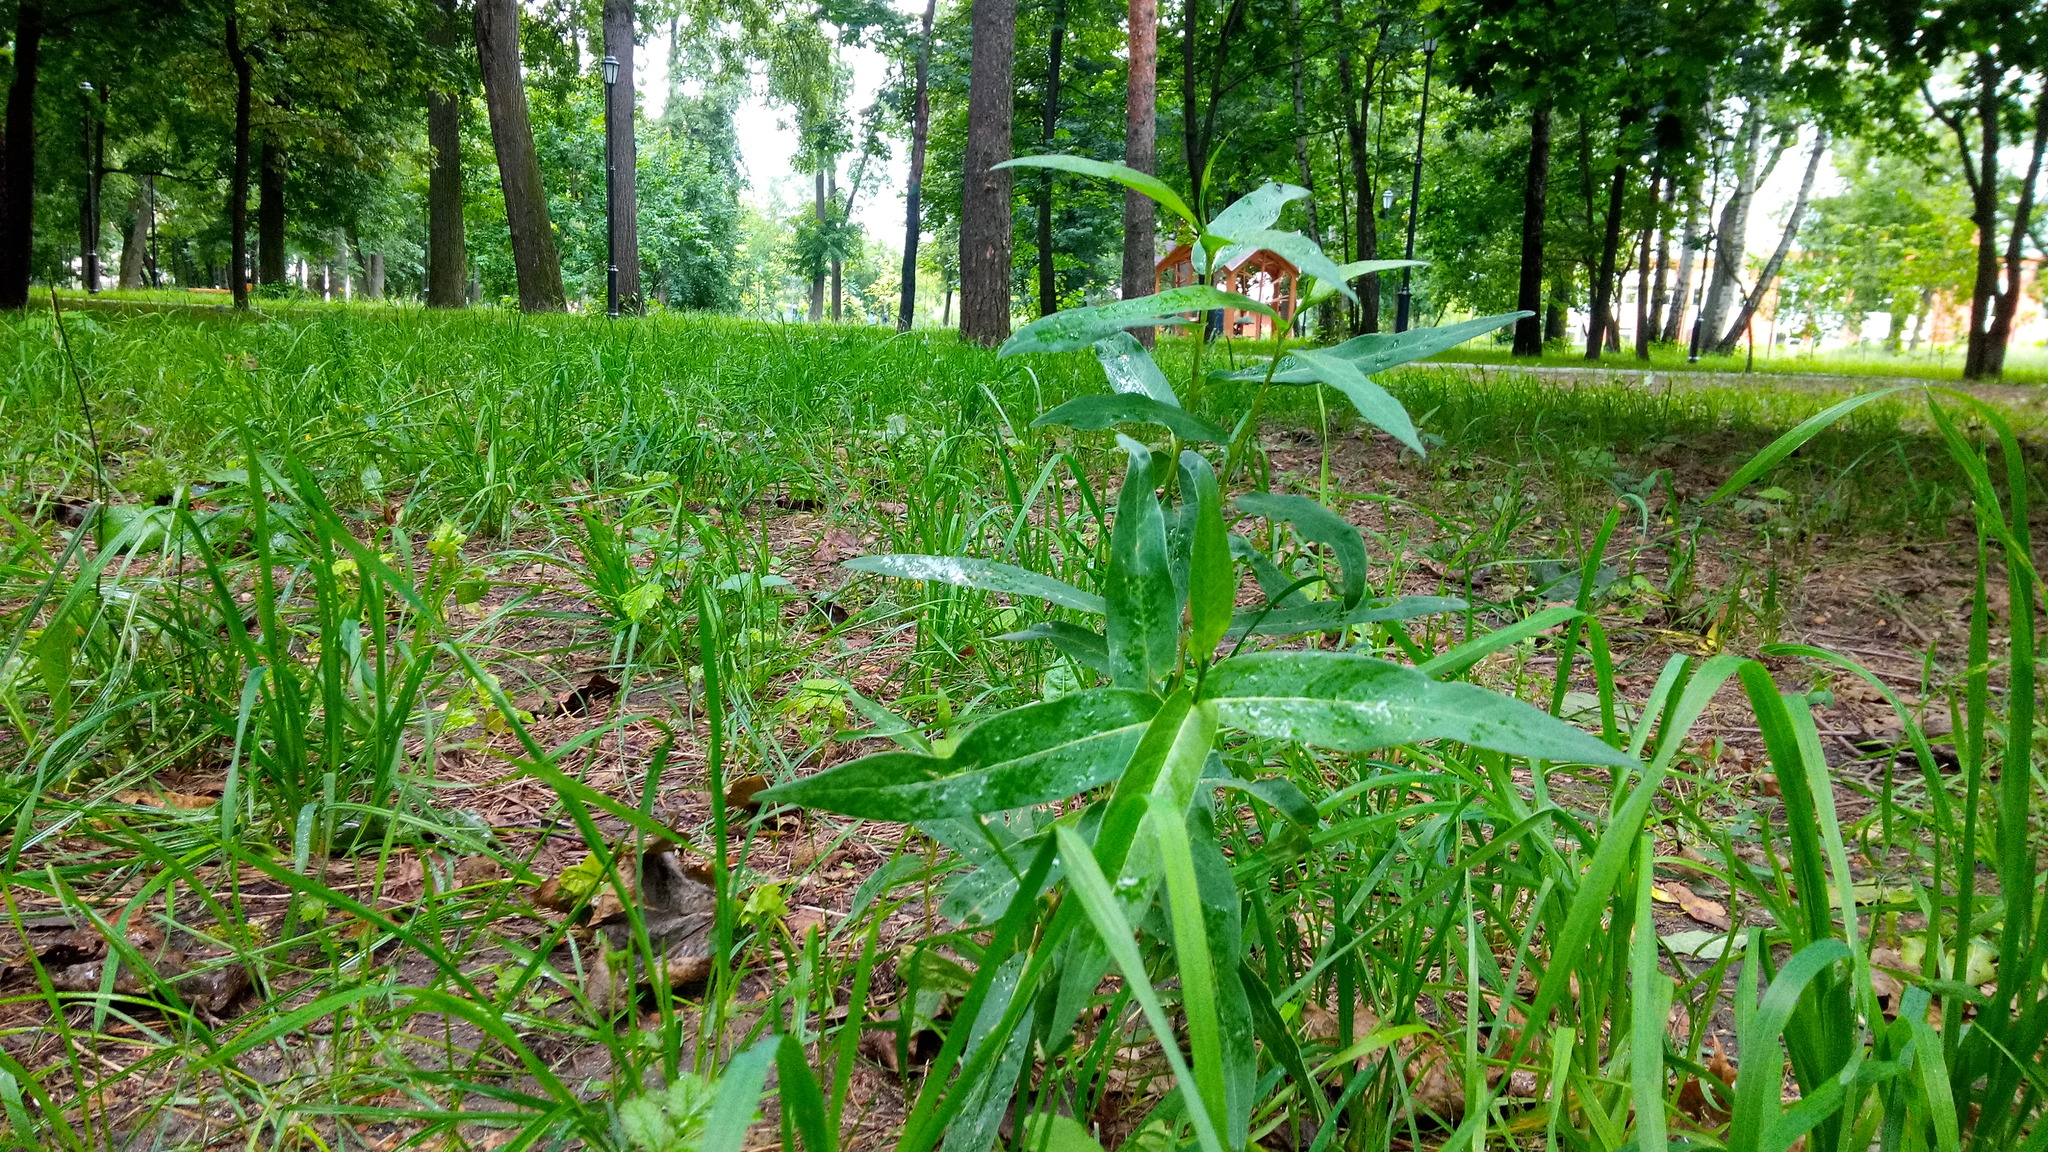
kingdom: Plantae
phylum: Tracheophyta
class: Magnoliopsida
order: Caryophyllales
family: Polygonaceae
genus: Persicaria
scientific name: Persicaria amphibia
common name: Amphibious bistort
